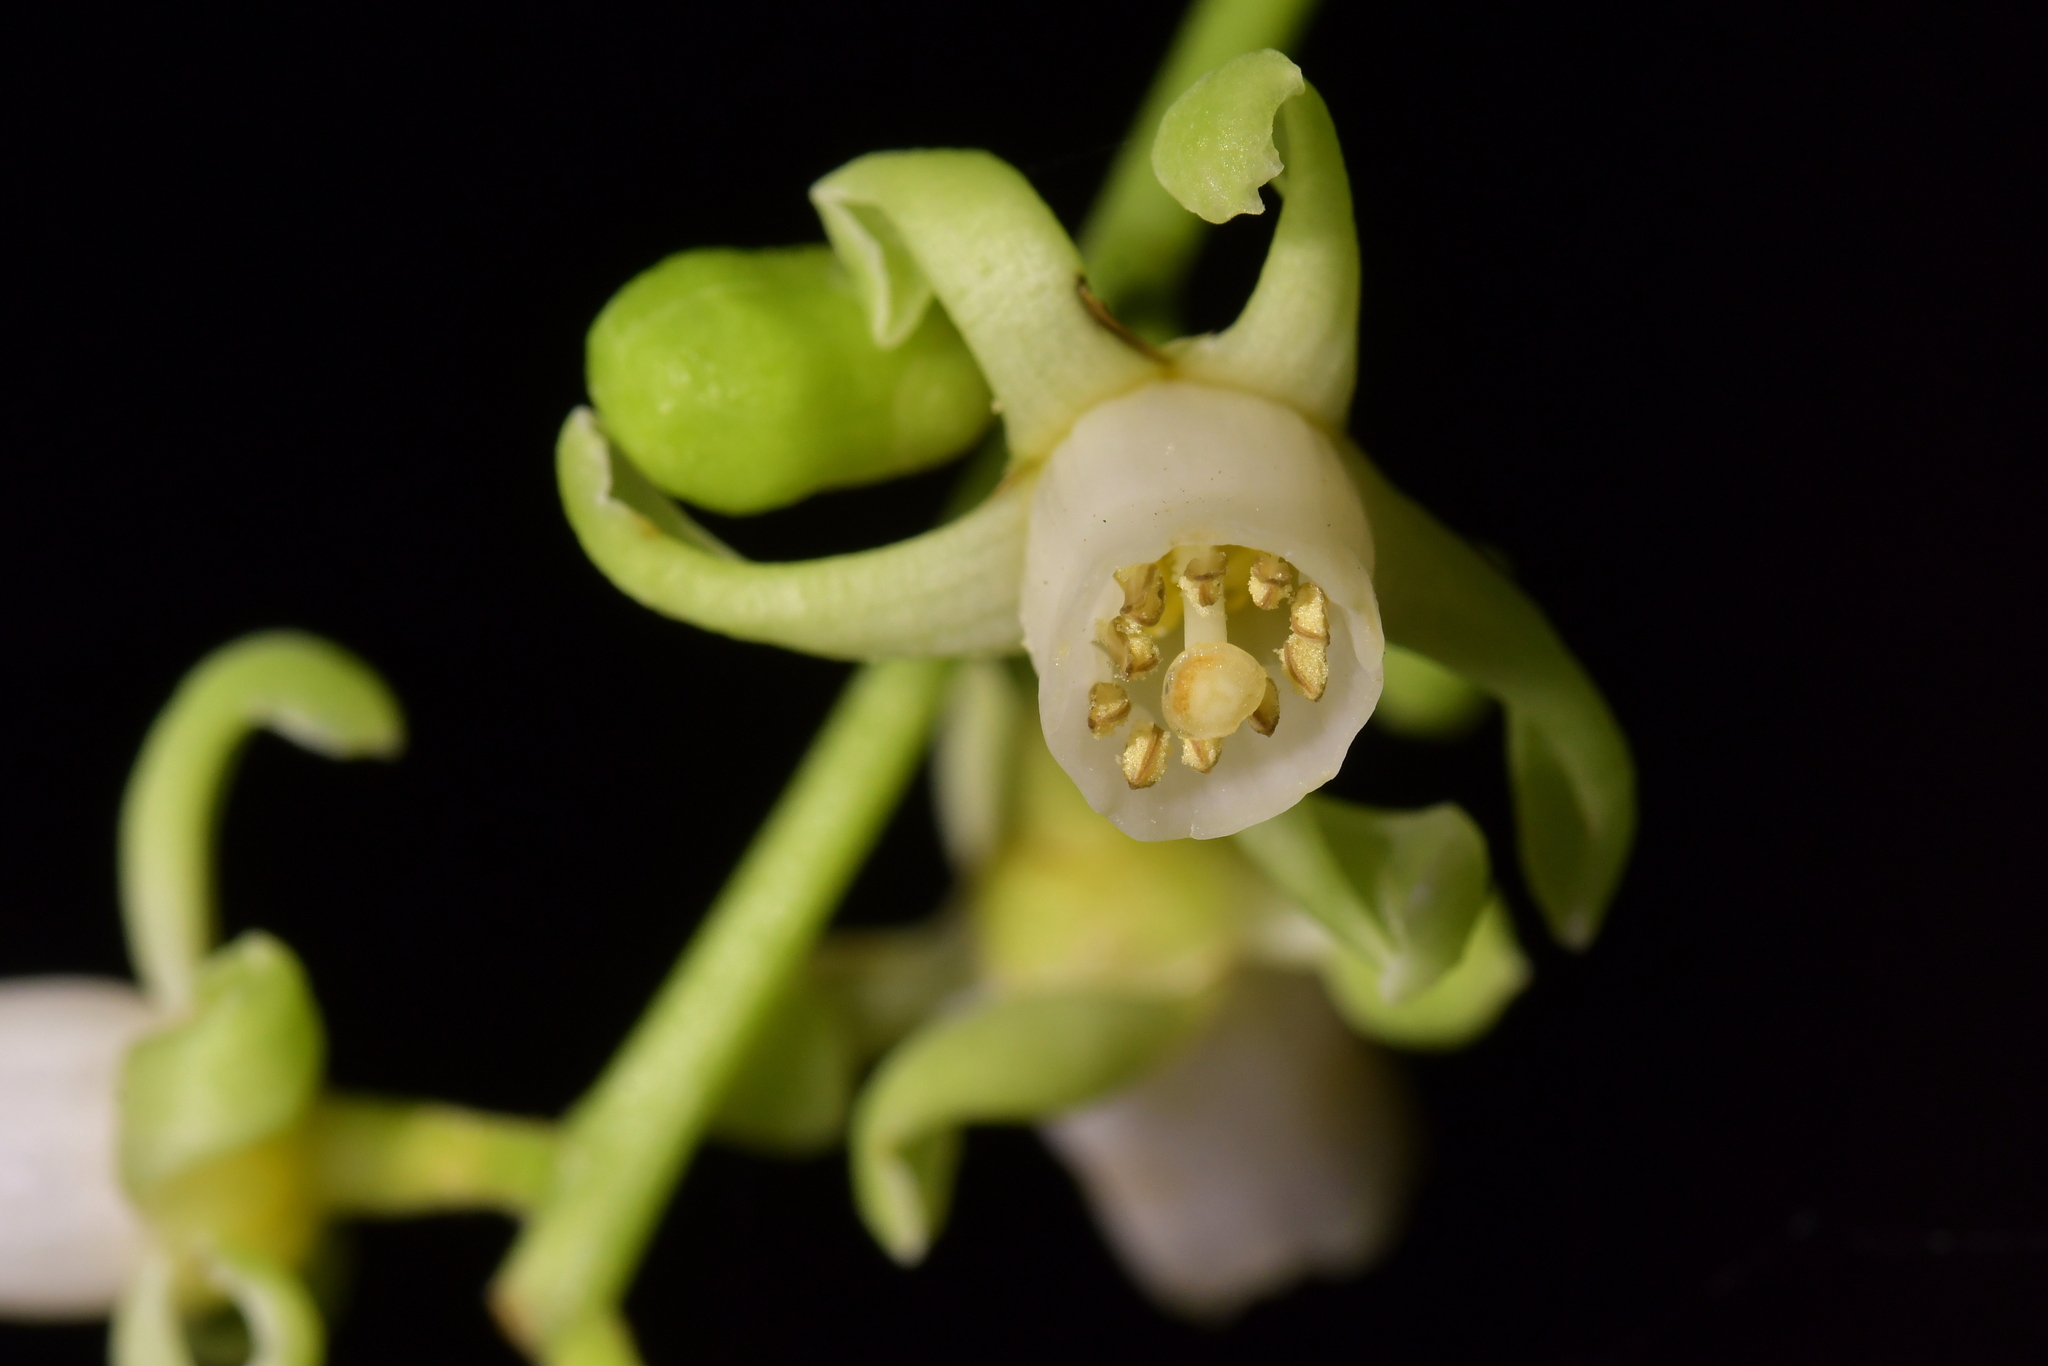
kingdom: Plantae
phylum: Tracheophyta
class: Magnoliopsida
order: Sapindales
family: Meliaceae
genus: Didymocheton
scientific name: Didymocheton spectabilis
